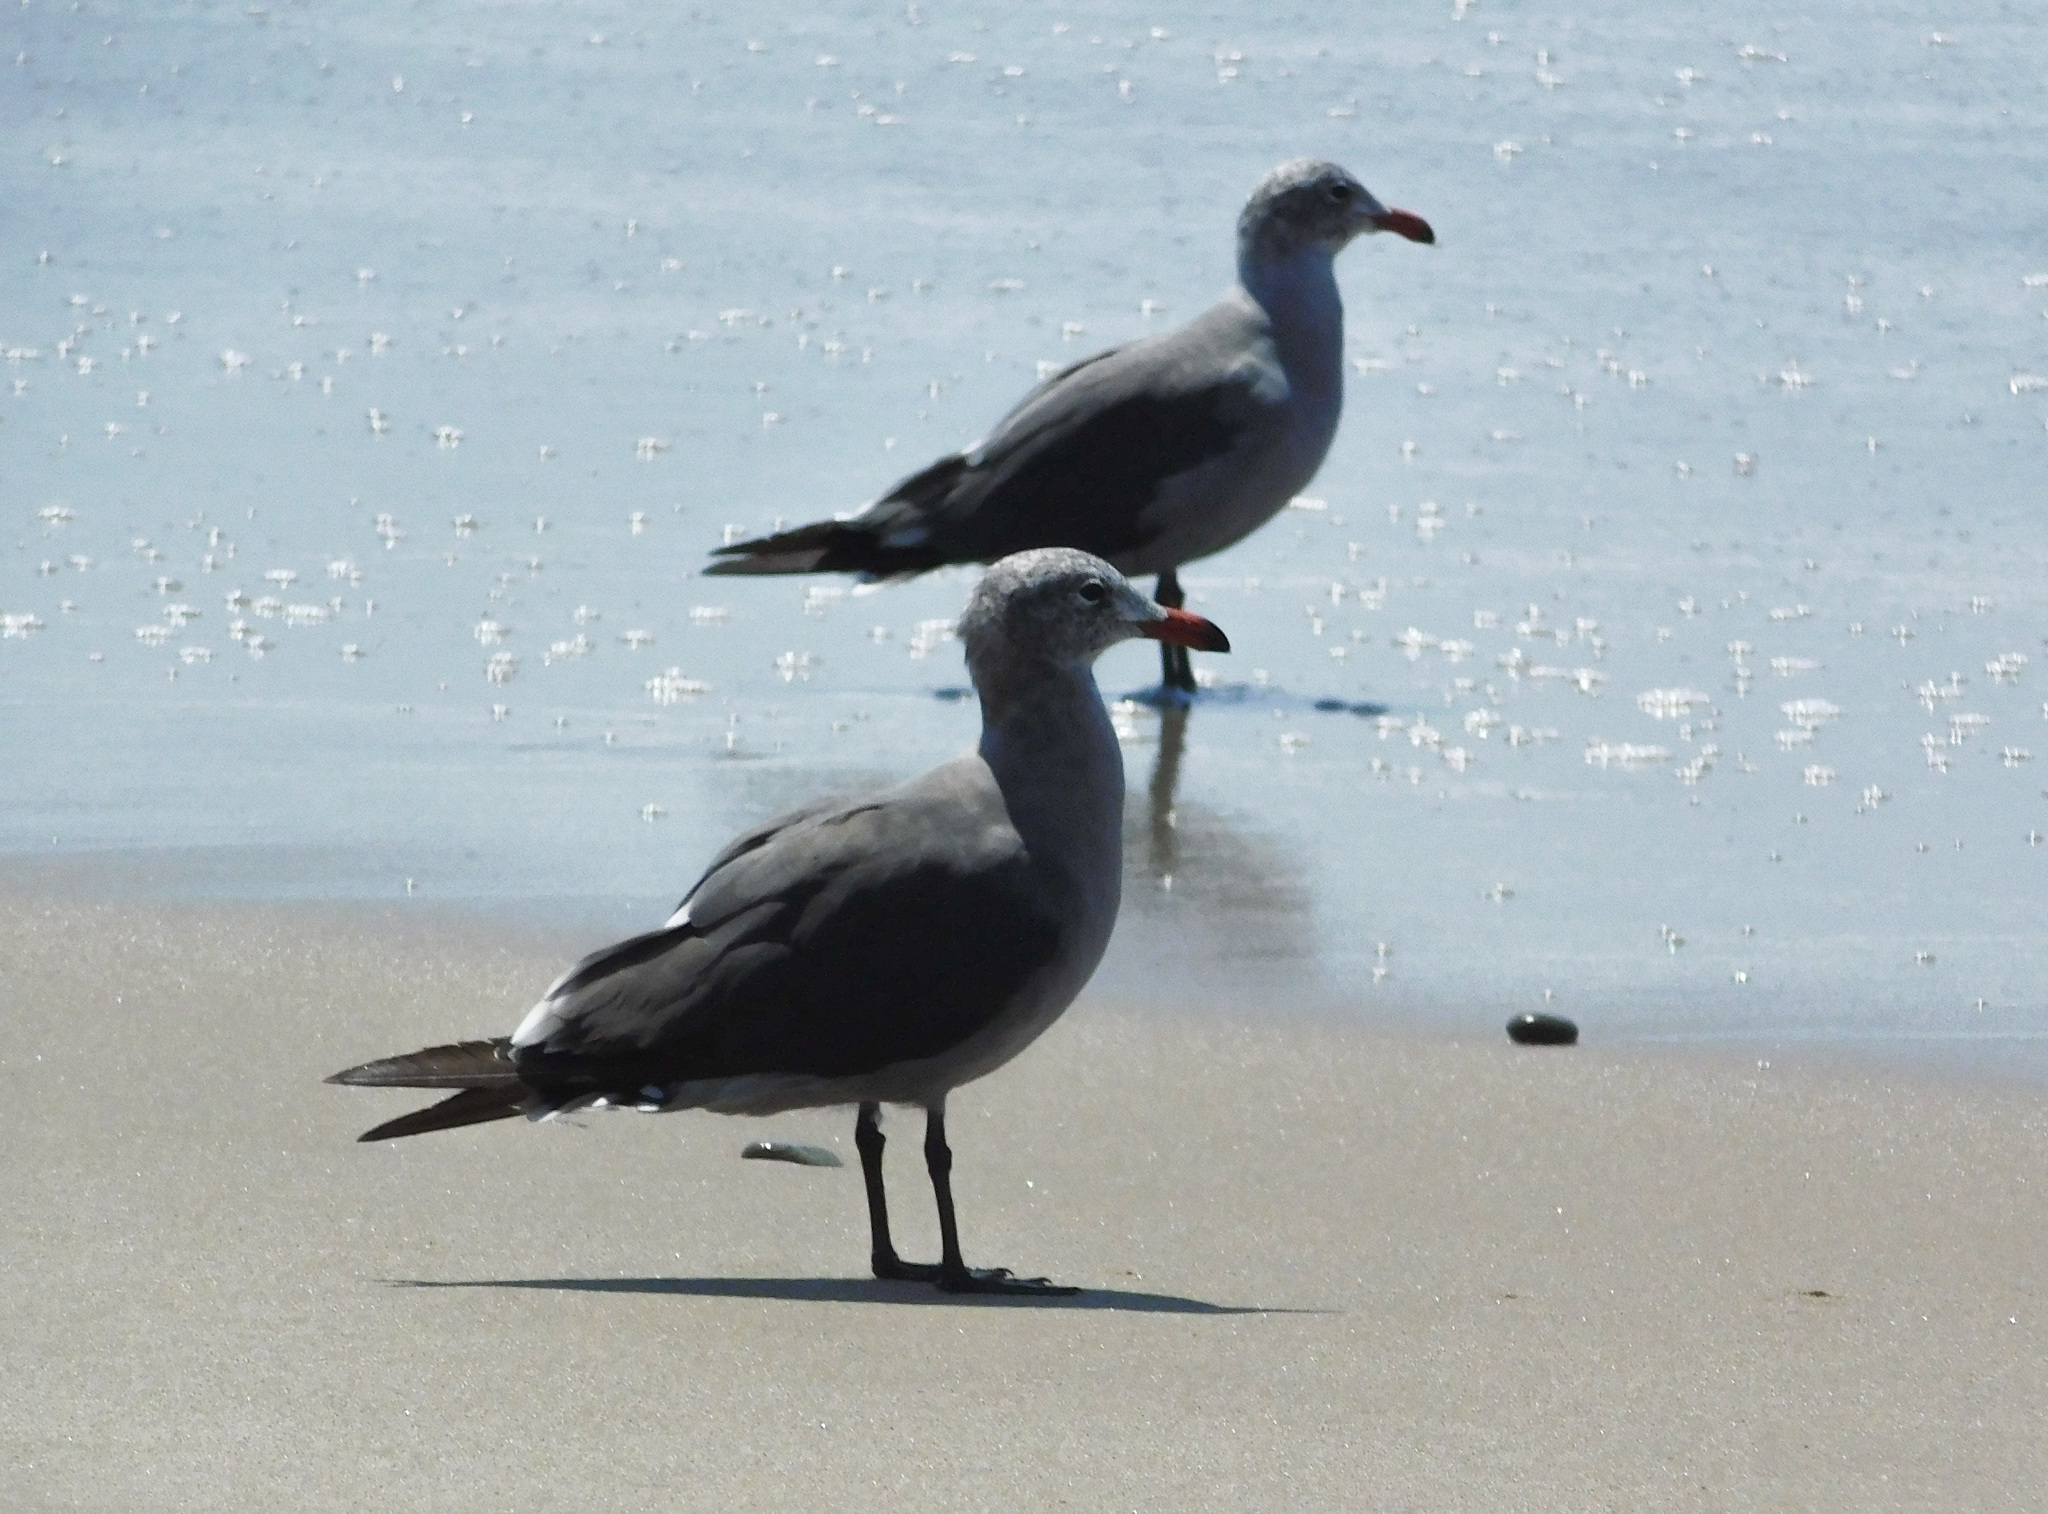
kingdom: Animalia
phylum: Chordata
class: Aves
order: Charadriiformes
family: Laridae
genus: Larus
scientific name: Larus heermanni
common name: Heermann's gull
